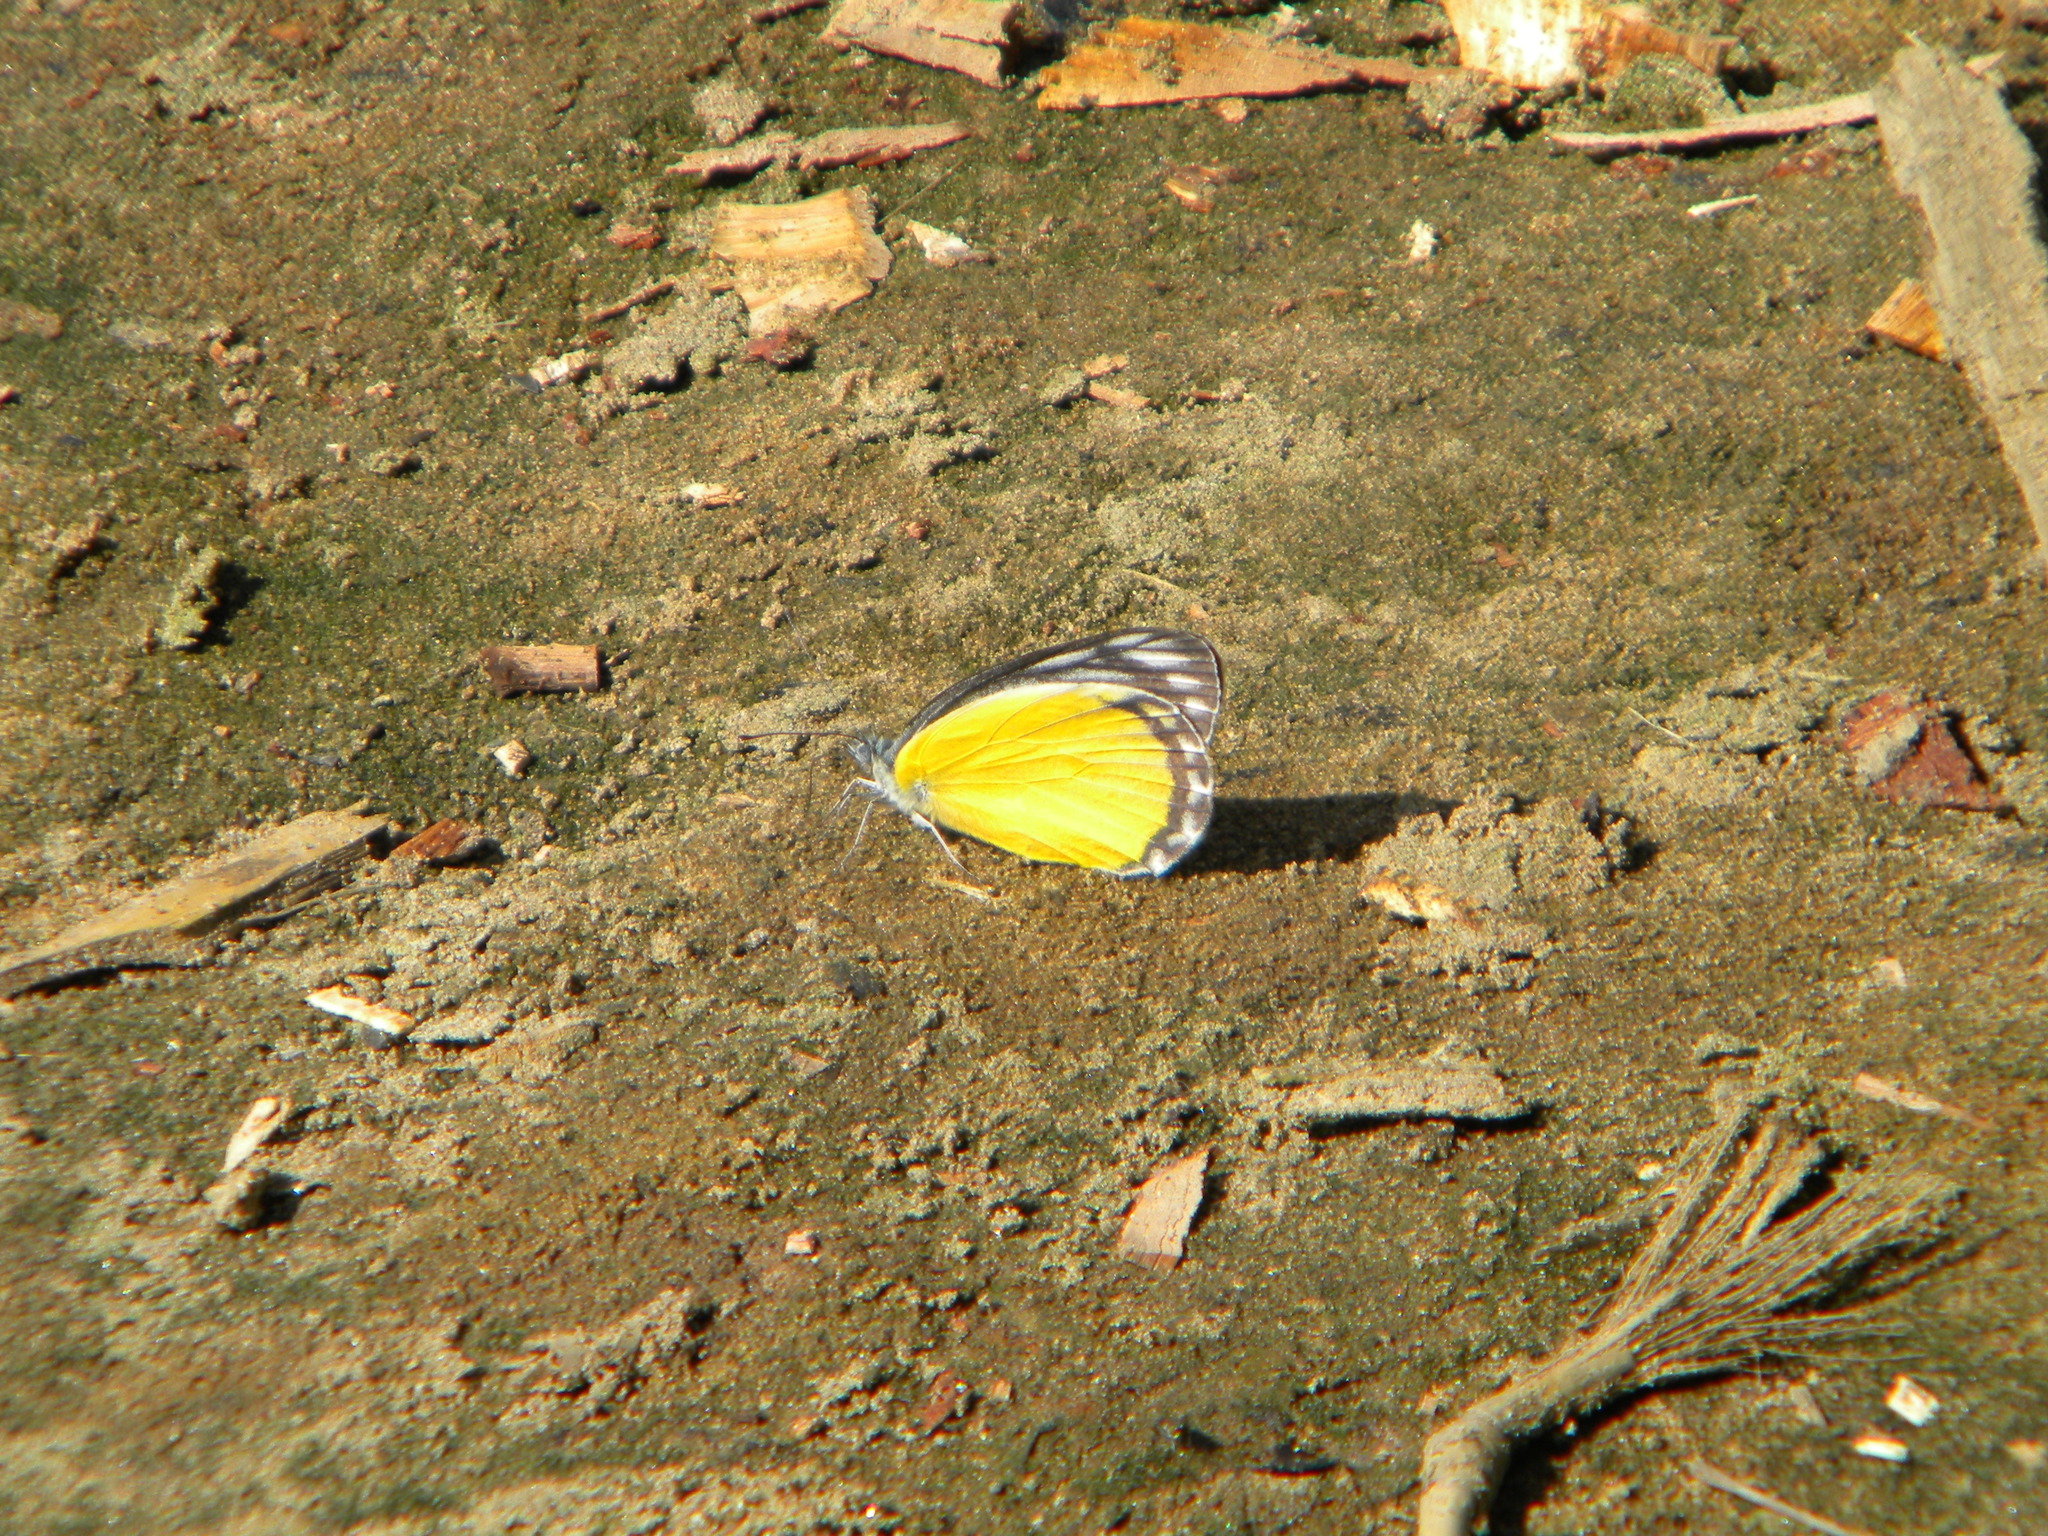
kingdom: Animalia
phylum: Arthropoda
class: Insecta
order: Lepidoptera
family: Pieridae
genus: Delias
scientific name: Delias agostina
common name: Yellow jezebel
